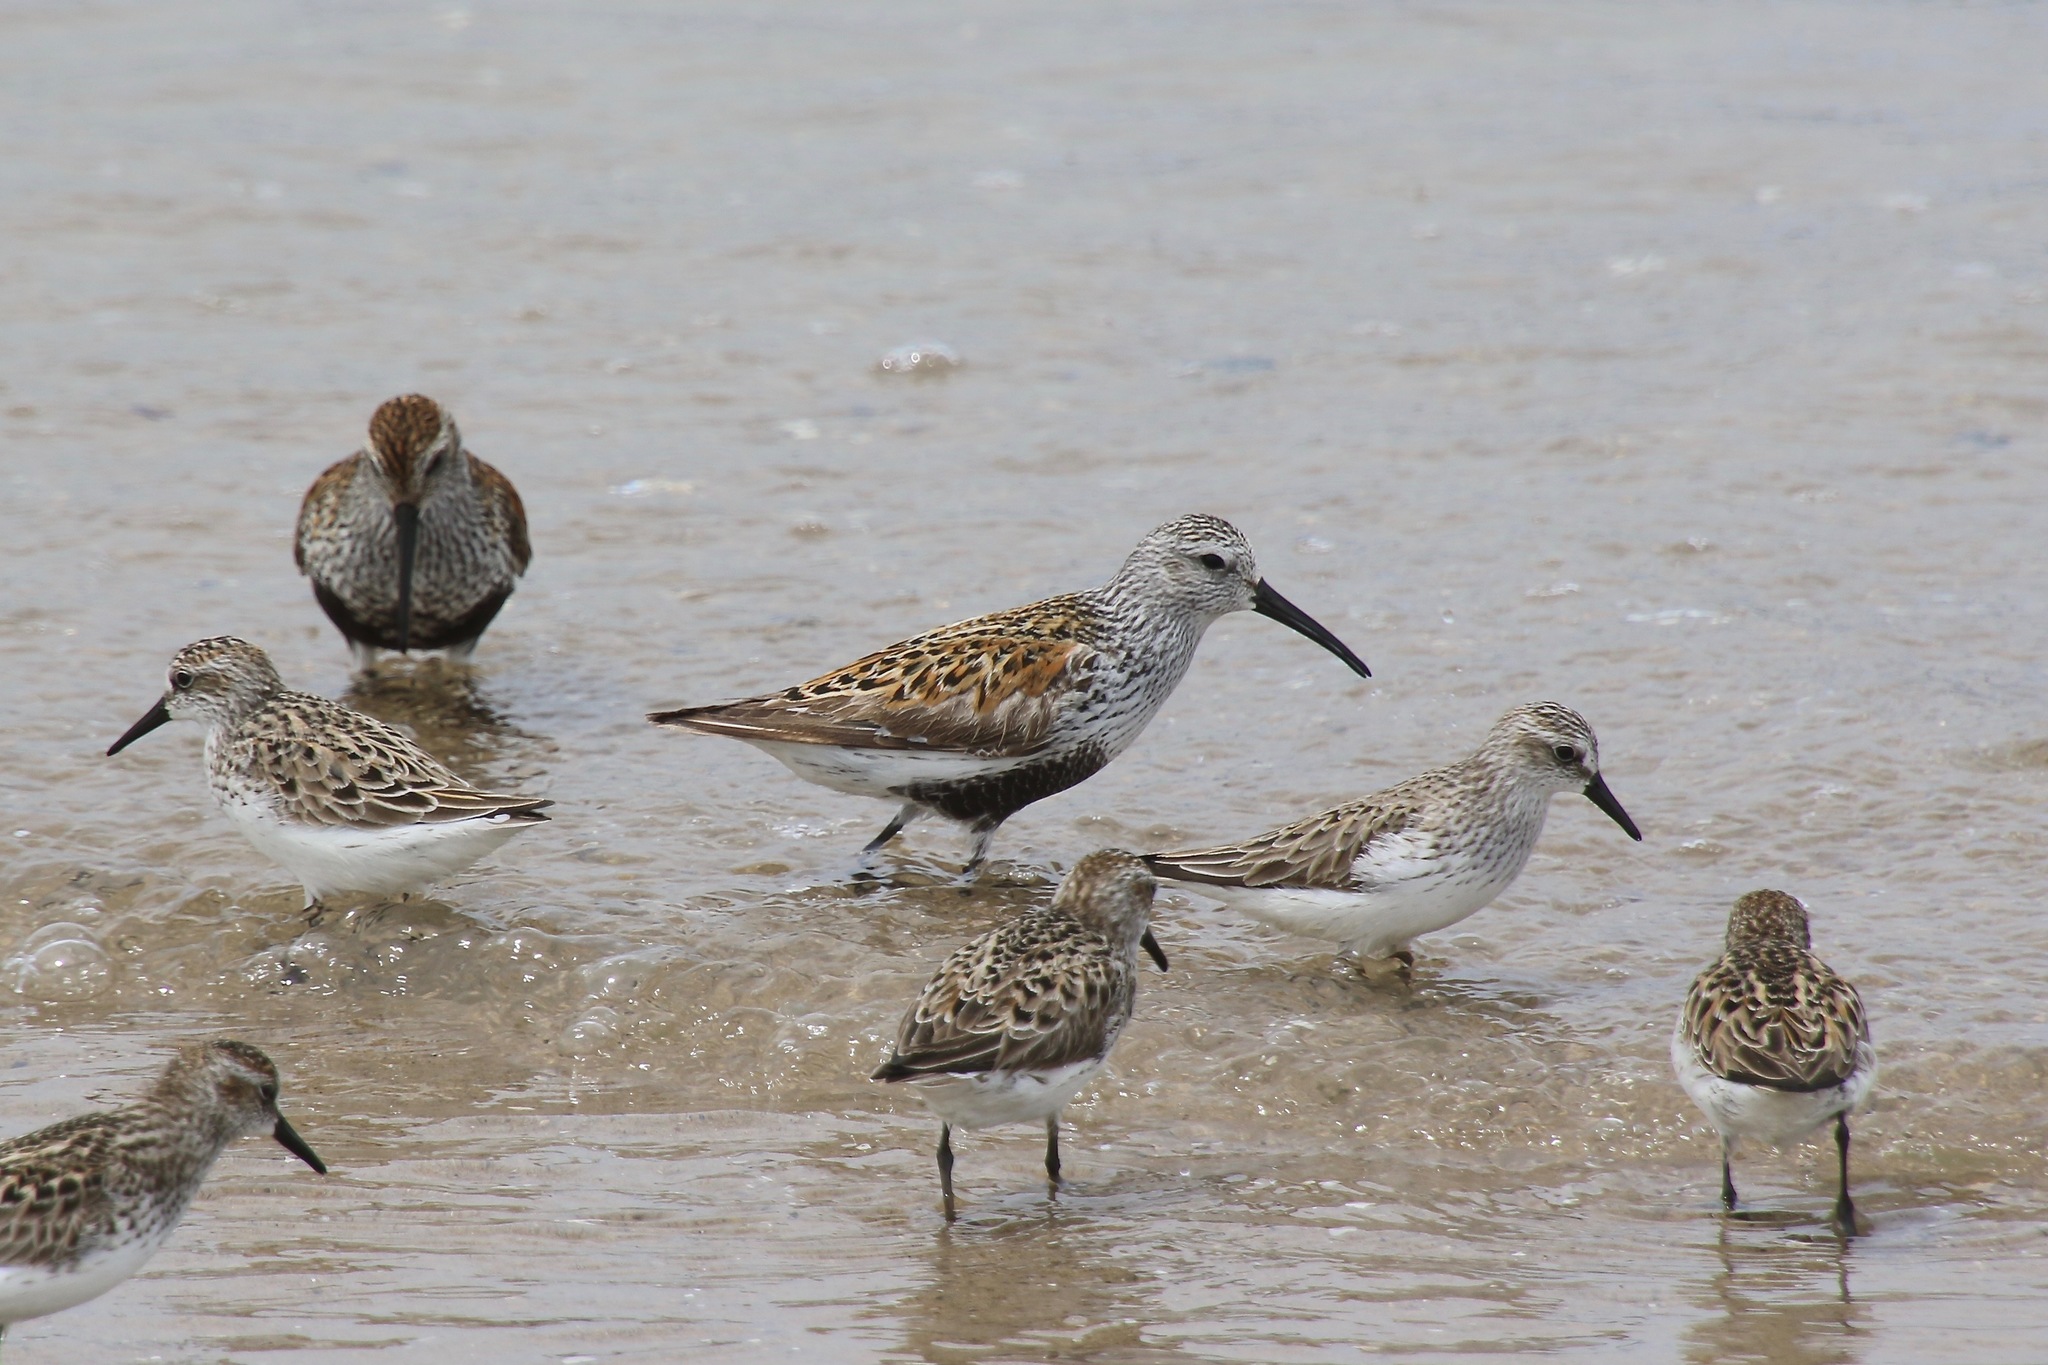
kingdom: Animalia
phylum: Chordata
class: Aves
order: Charadriiformes
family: Scolopacidae
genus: Calidris
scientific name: Calidris alpina
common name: Dunlin
